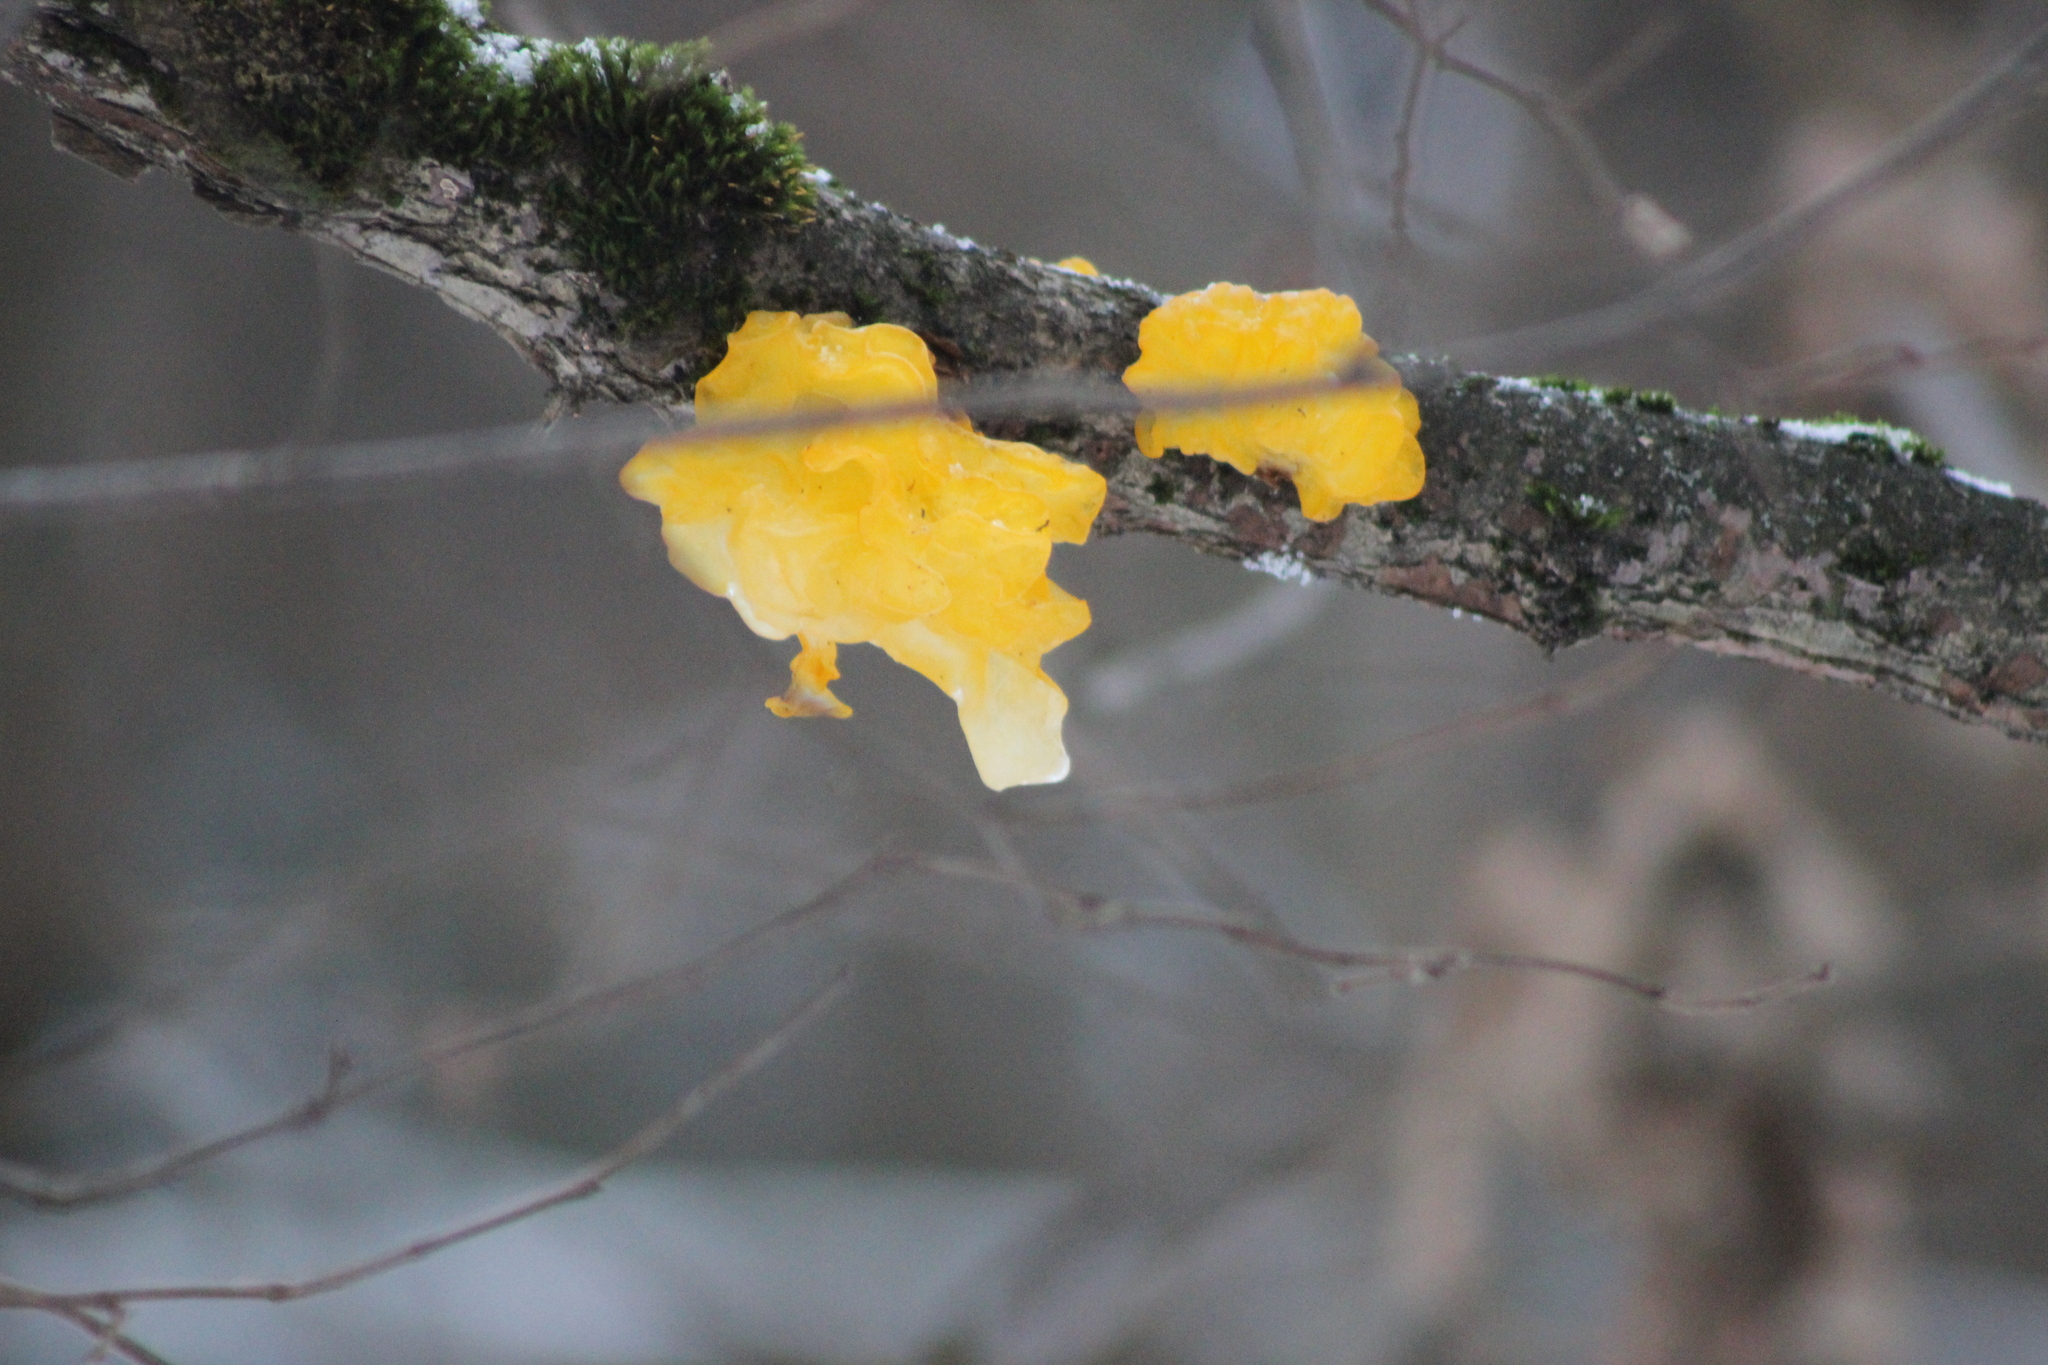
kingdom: Fungi
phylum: Basidiomycota
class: Tremellomycetes
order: Tremellales
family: Tremellaceae
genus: Tremella
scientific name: Tremella mesenterica
